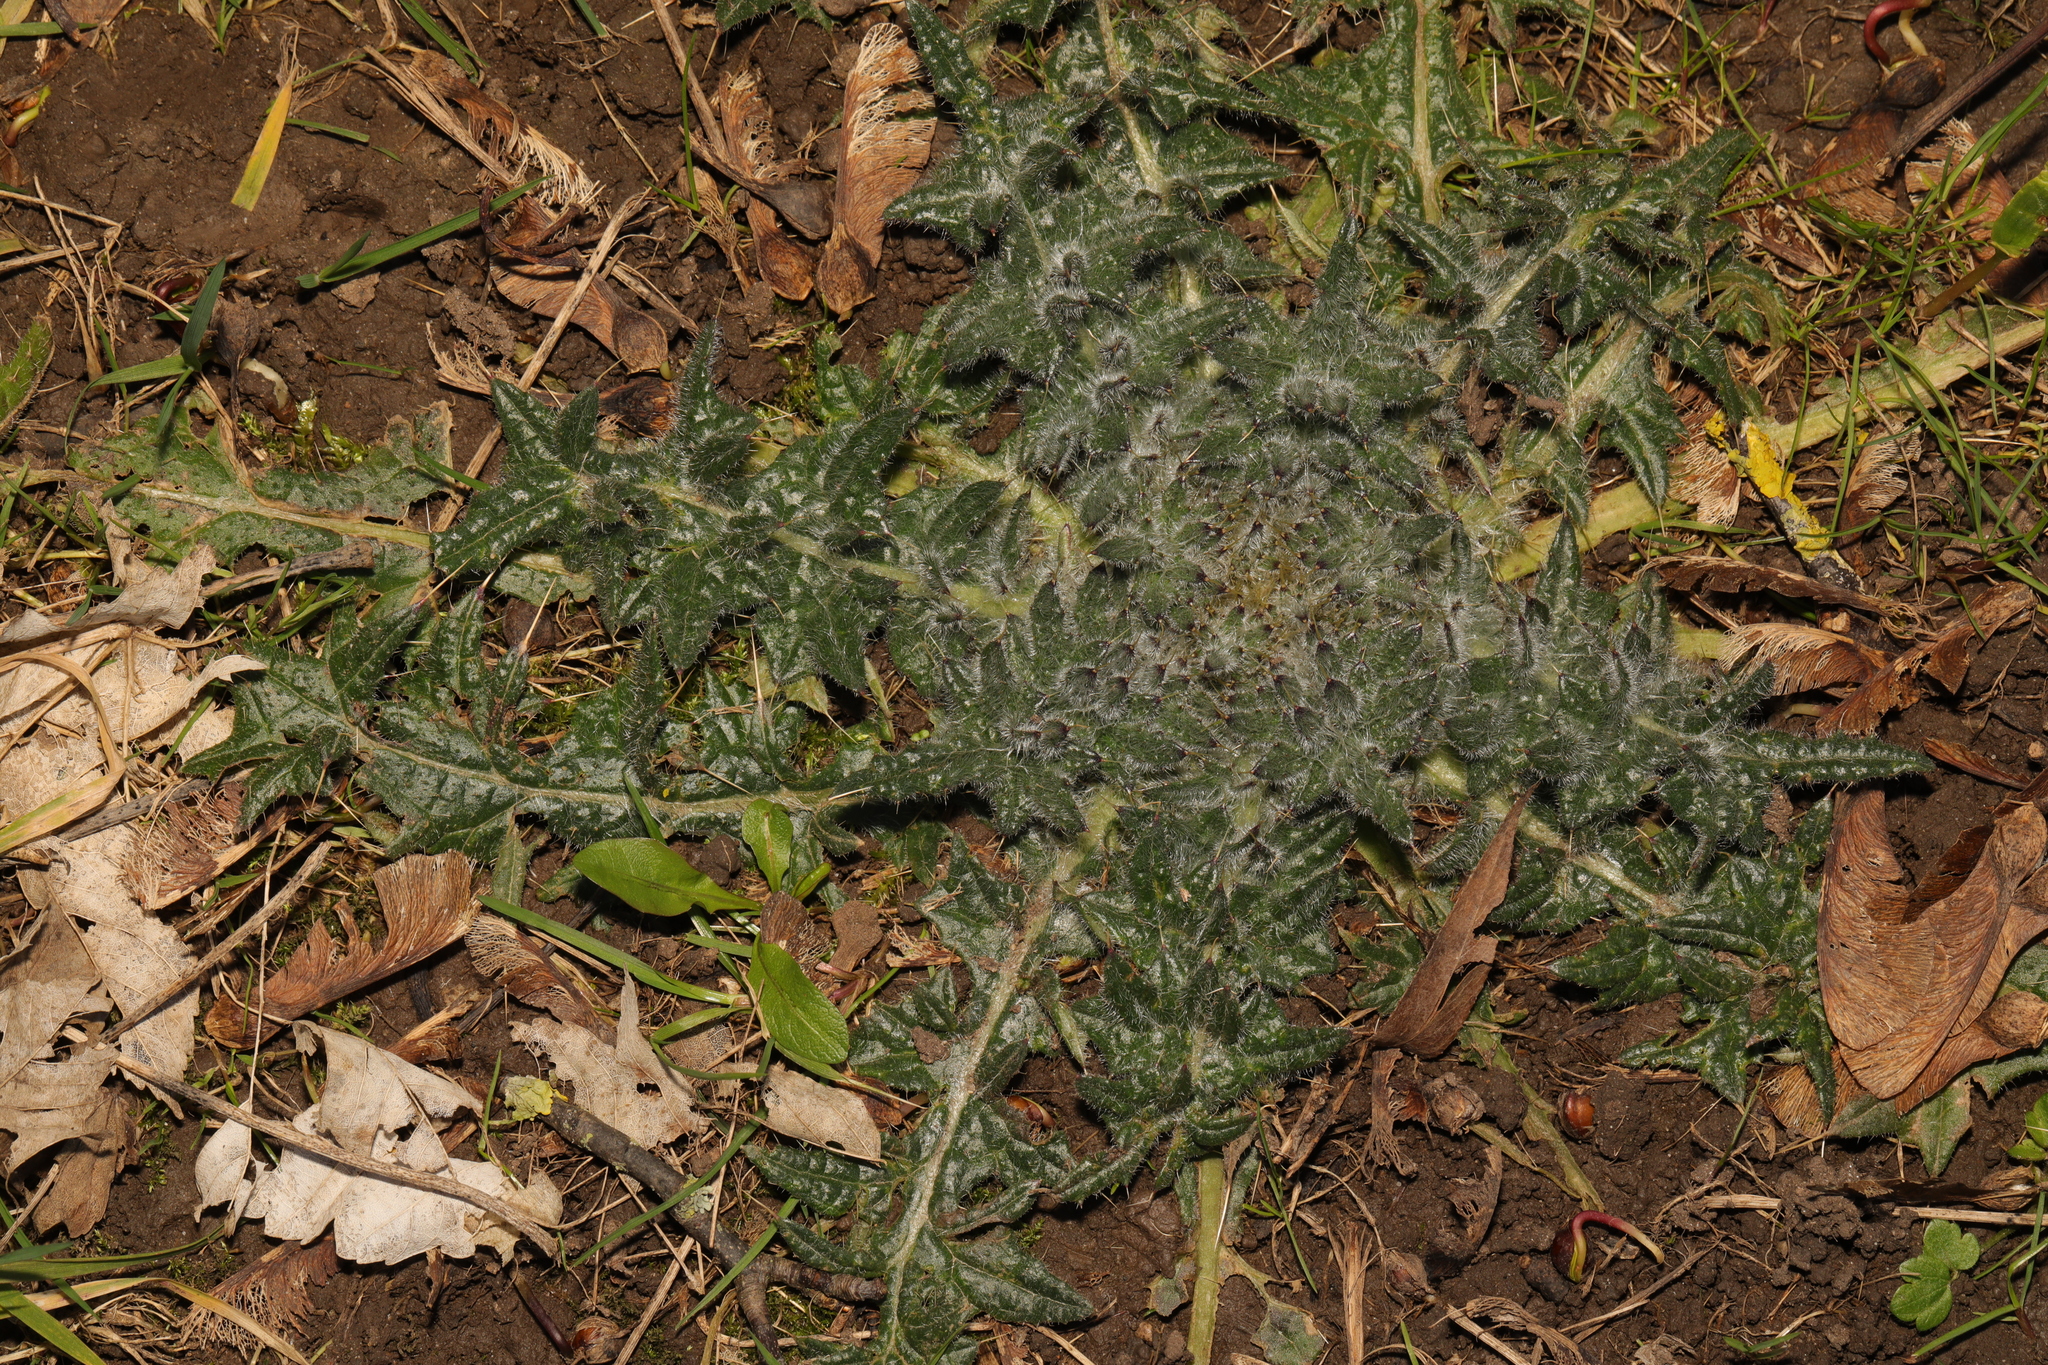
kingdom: Plantae
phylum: Tracheophyta
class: Magnoliopsida
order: Asterales
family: Asteraceae
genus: Cirsium
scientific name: Cirsium vulgare
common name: Bull thistle
